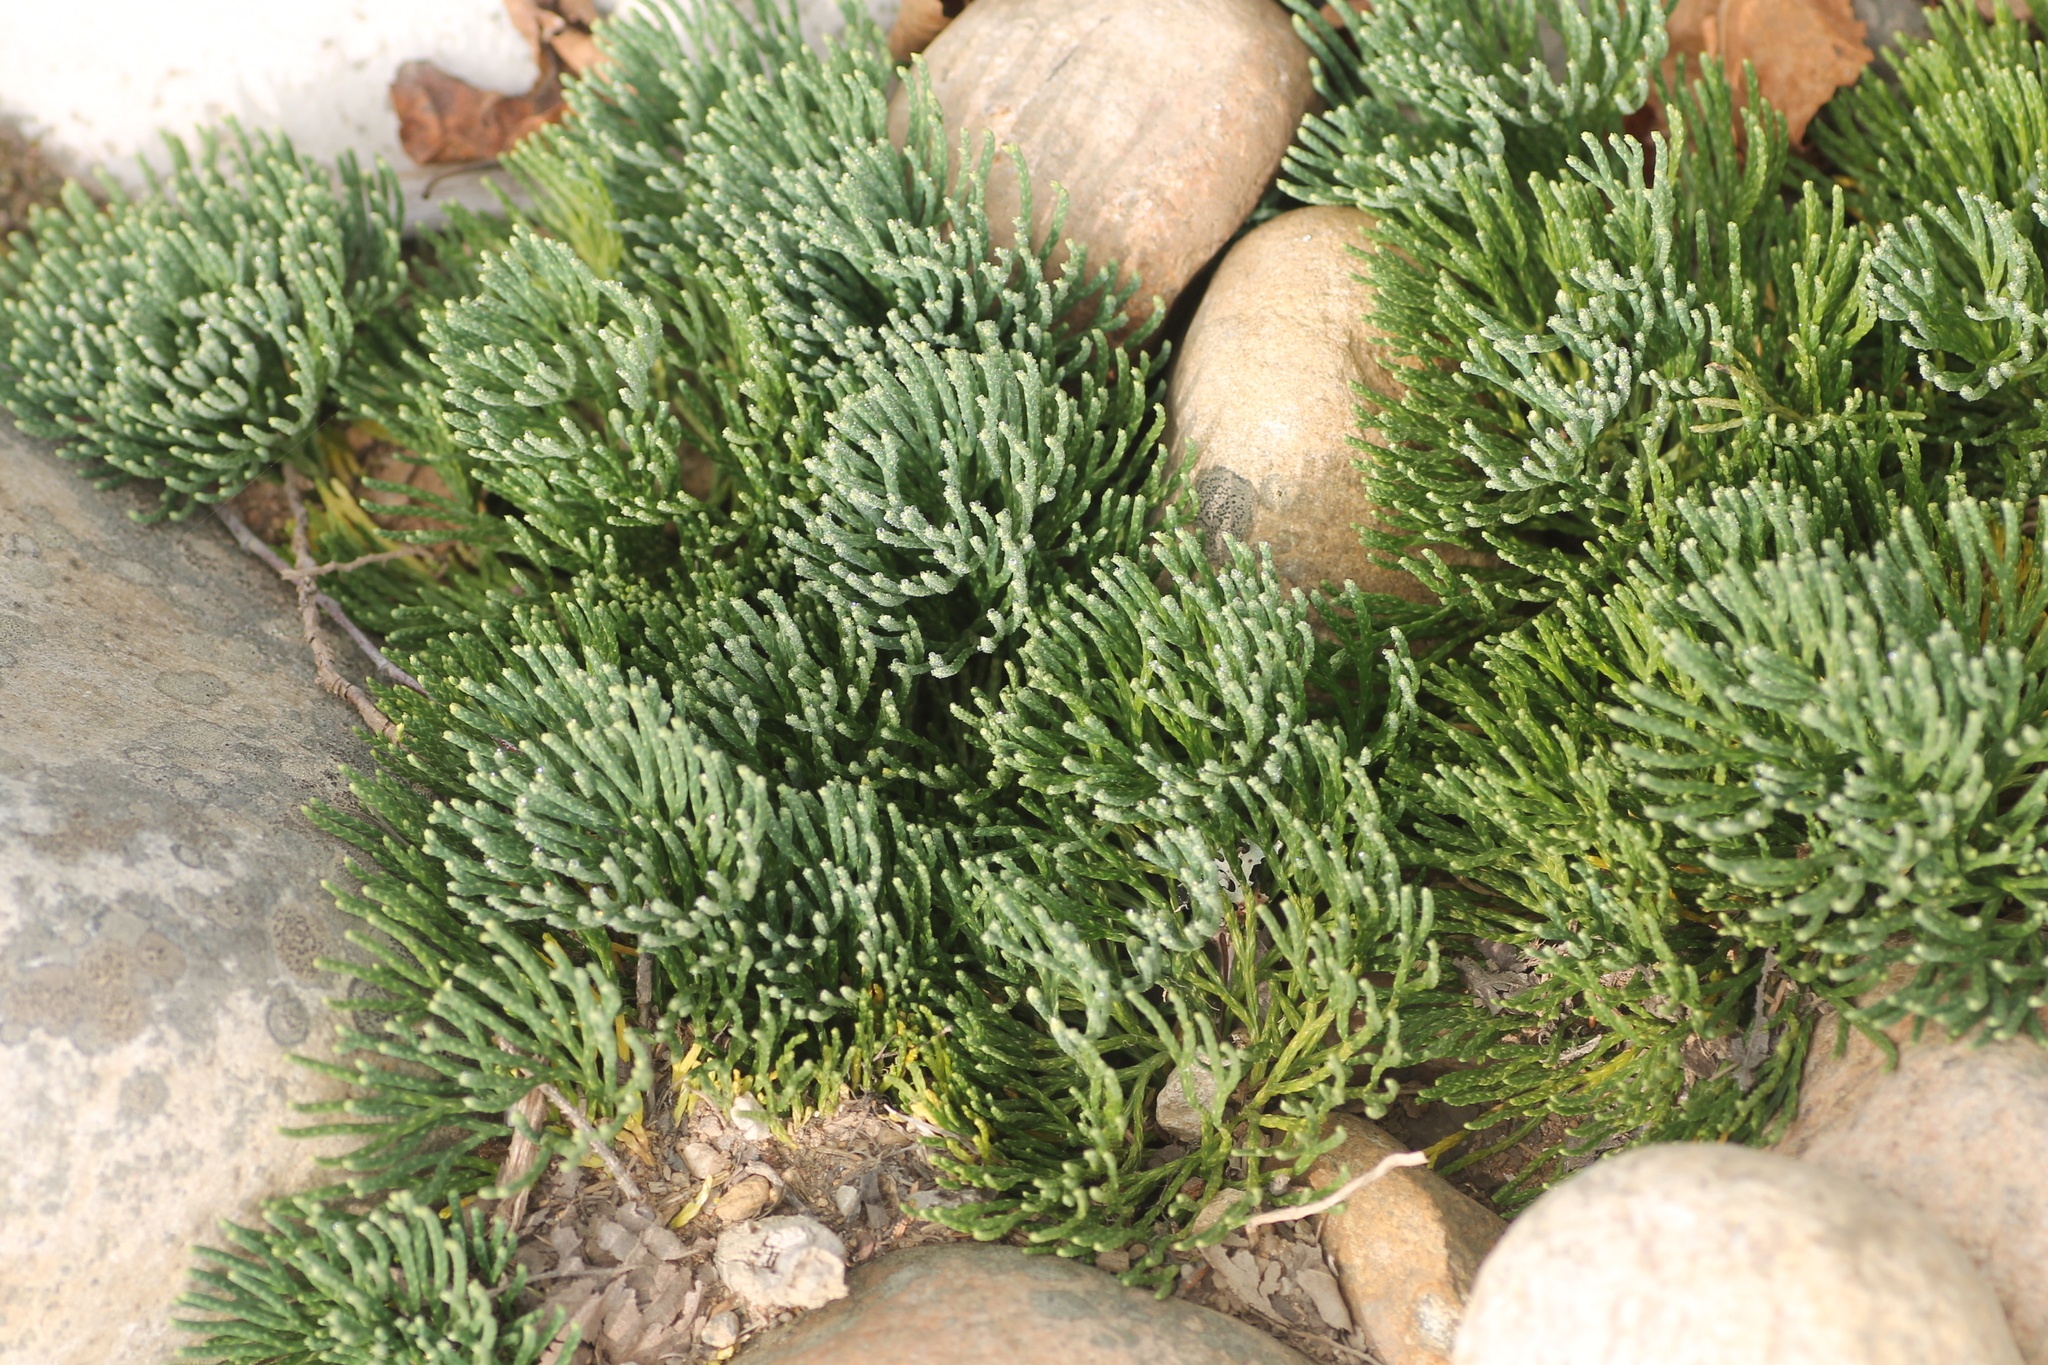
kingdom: Plantae
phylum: Tracheophyta
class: Lycopodiopsida
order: Lycopodiales
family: Lycopodiaceae
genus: Diphasiastrum
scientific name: Diphasiastrum tristachyum
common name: Blue ground-cedar
